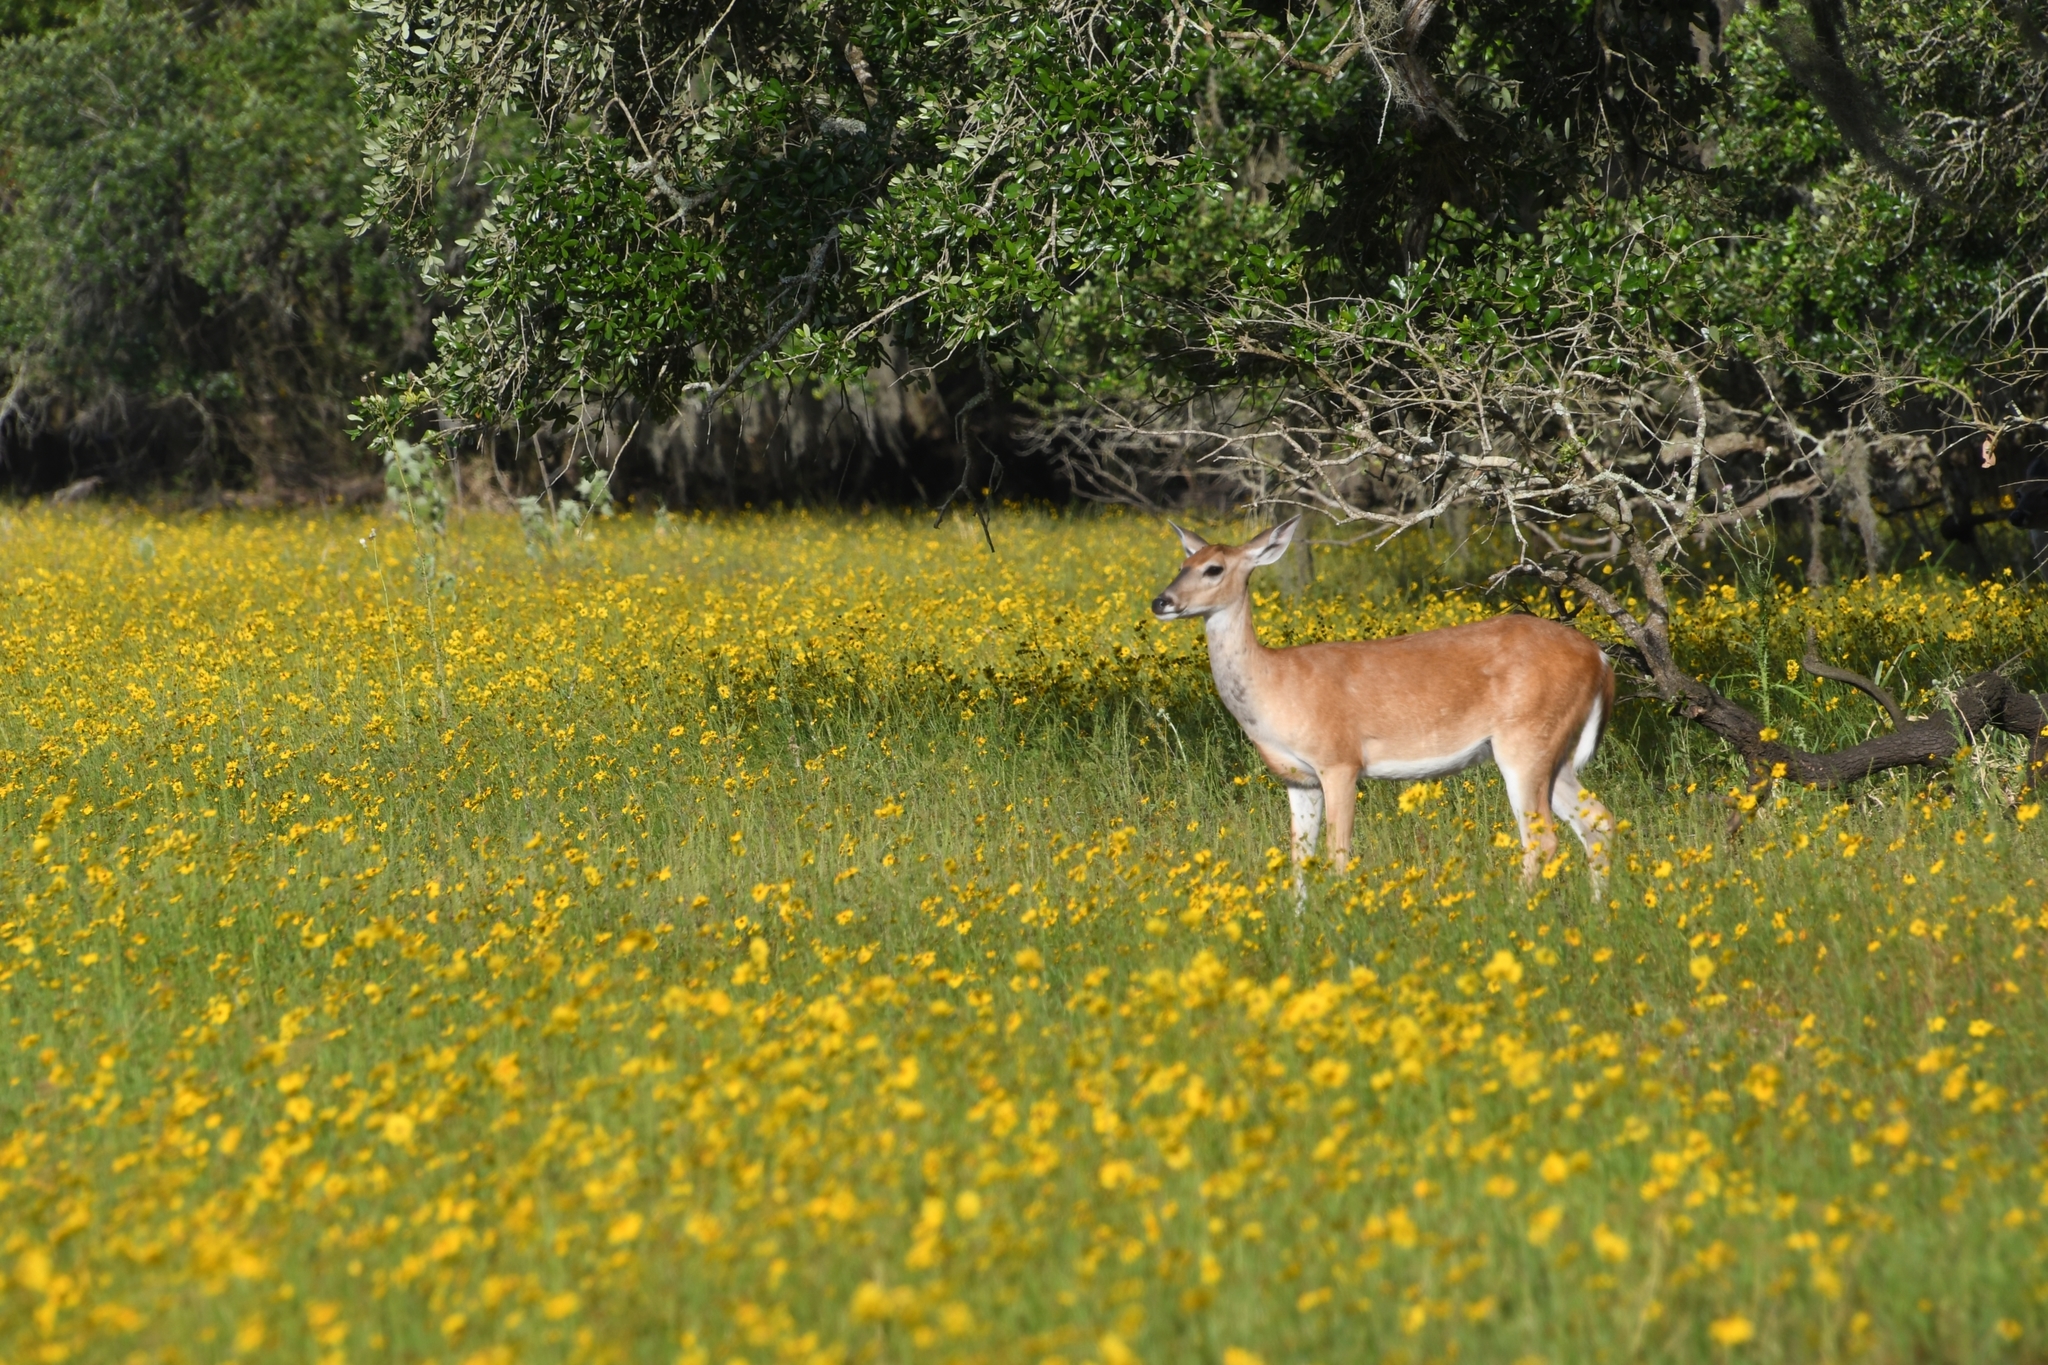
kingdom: Animalia
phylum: Chordata
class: Mammalia
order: Artiodactyla
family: Cervidae
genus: Odocoileus
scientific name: Odocoileus virginianus
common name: White-tailed deer
